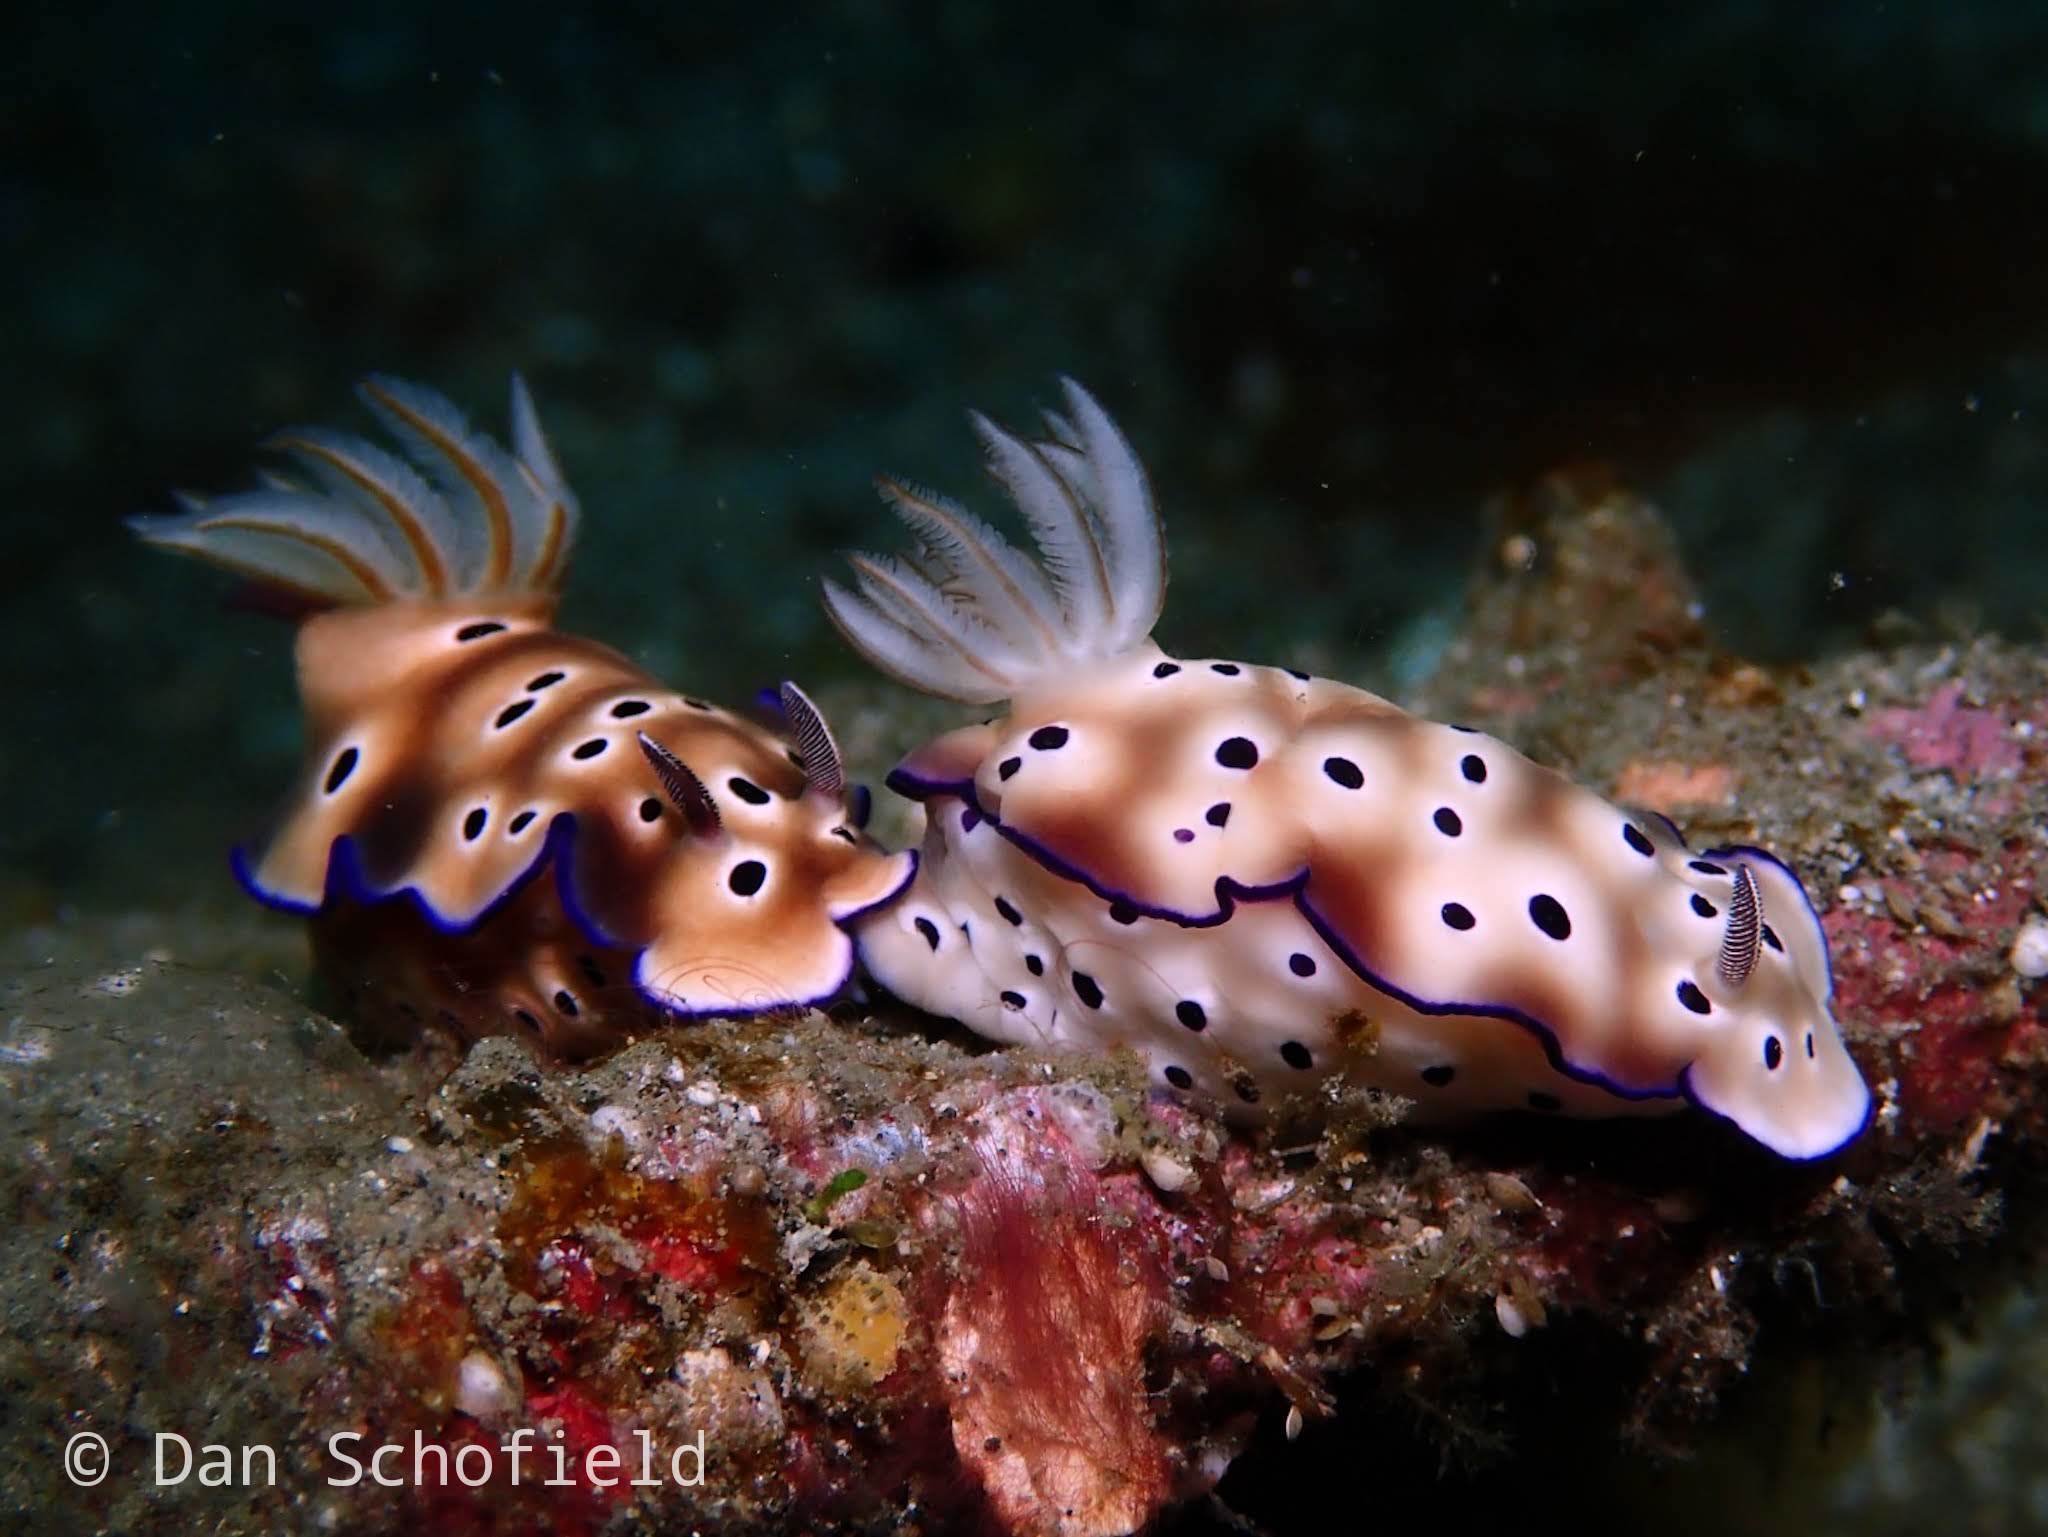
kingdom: Animalia
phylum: Mollusca
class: Gastropoda
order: Nudibranchia
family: Chromodorididae
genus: Hypselodoris
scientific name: Hypselodoris tryoni
